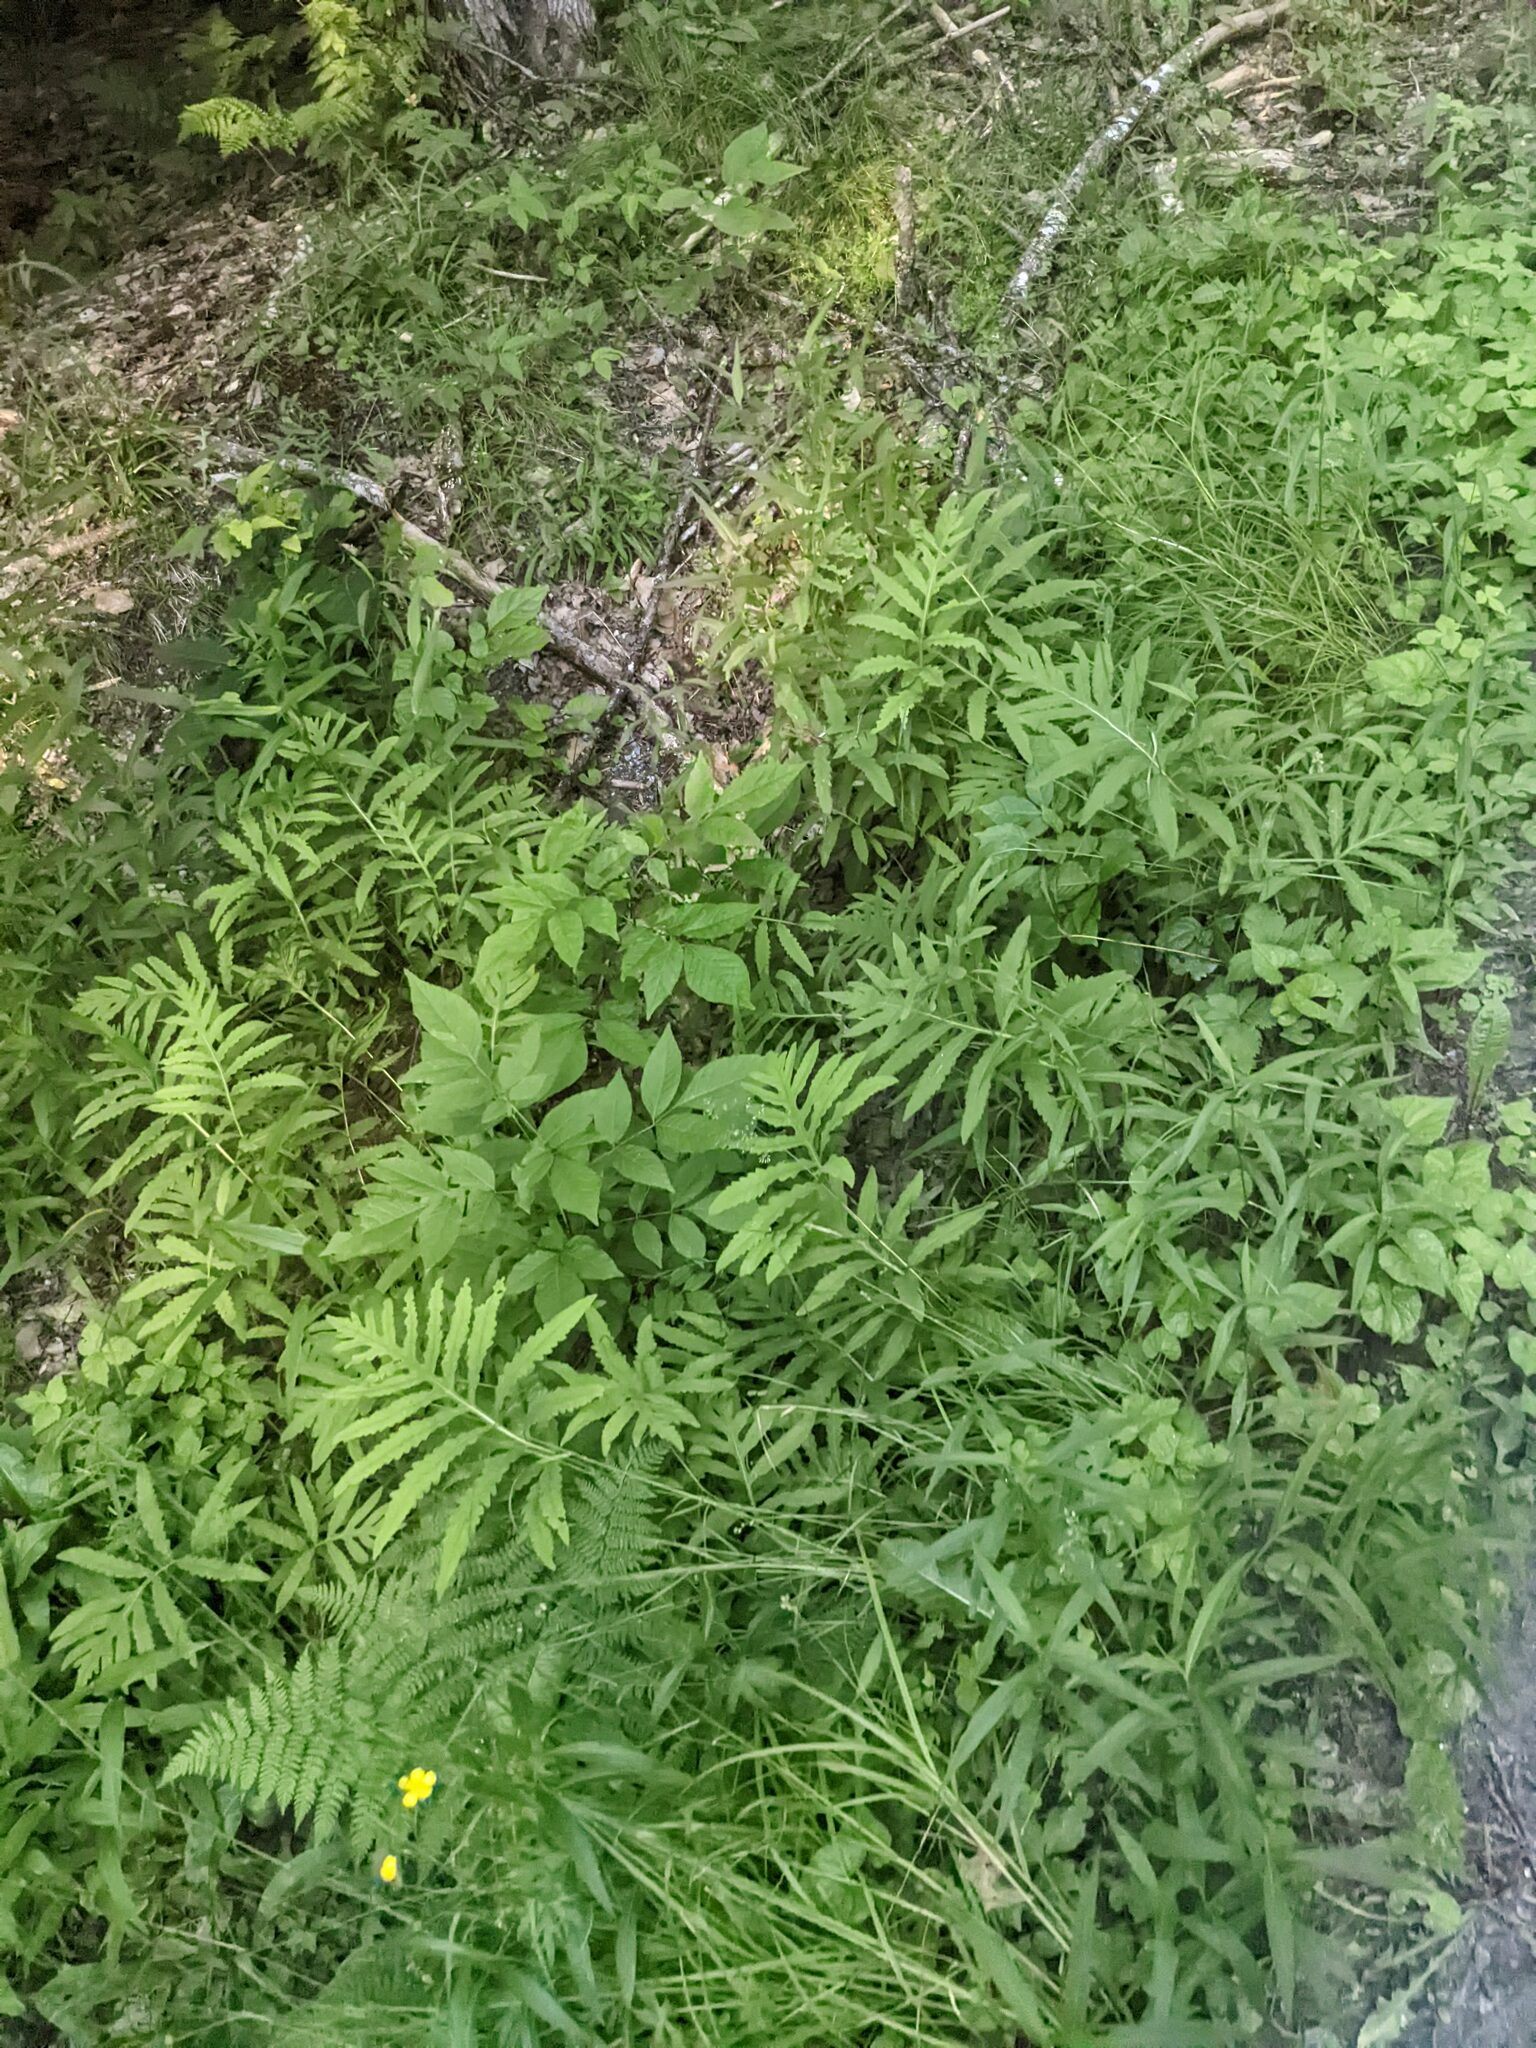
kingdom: Plantae
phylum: Tracheophyta
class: Polypodiopsida
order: Polypodiales
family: Onocleaceae
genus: Onoclea
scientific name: Onoclea sensibilis
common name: Sensitive fern
